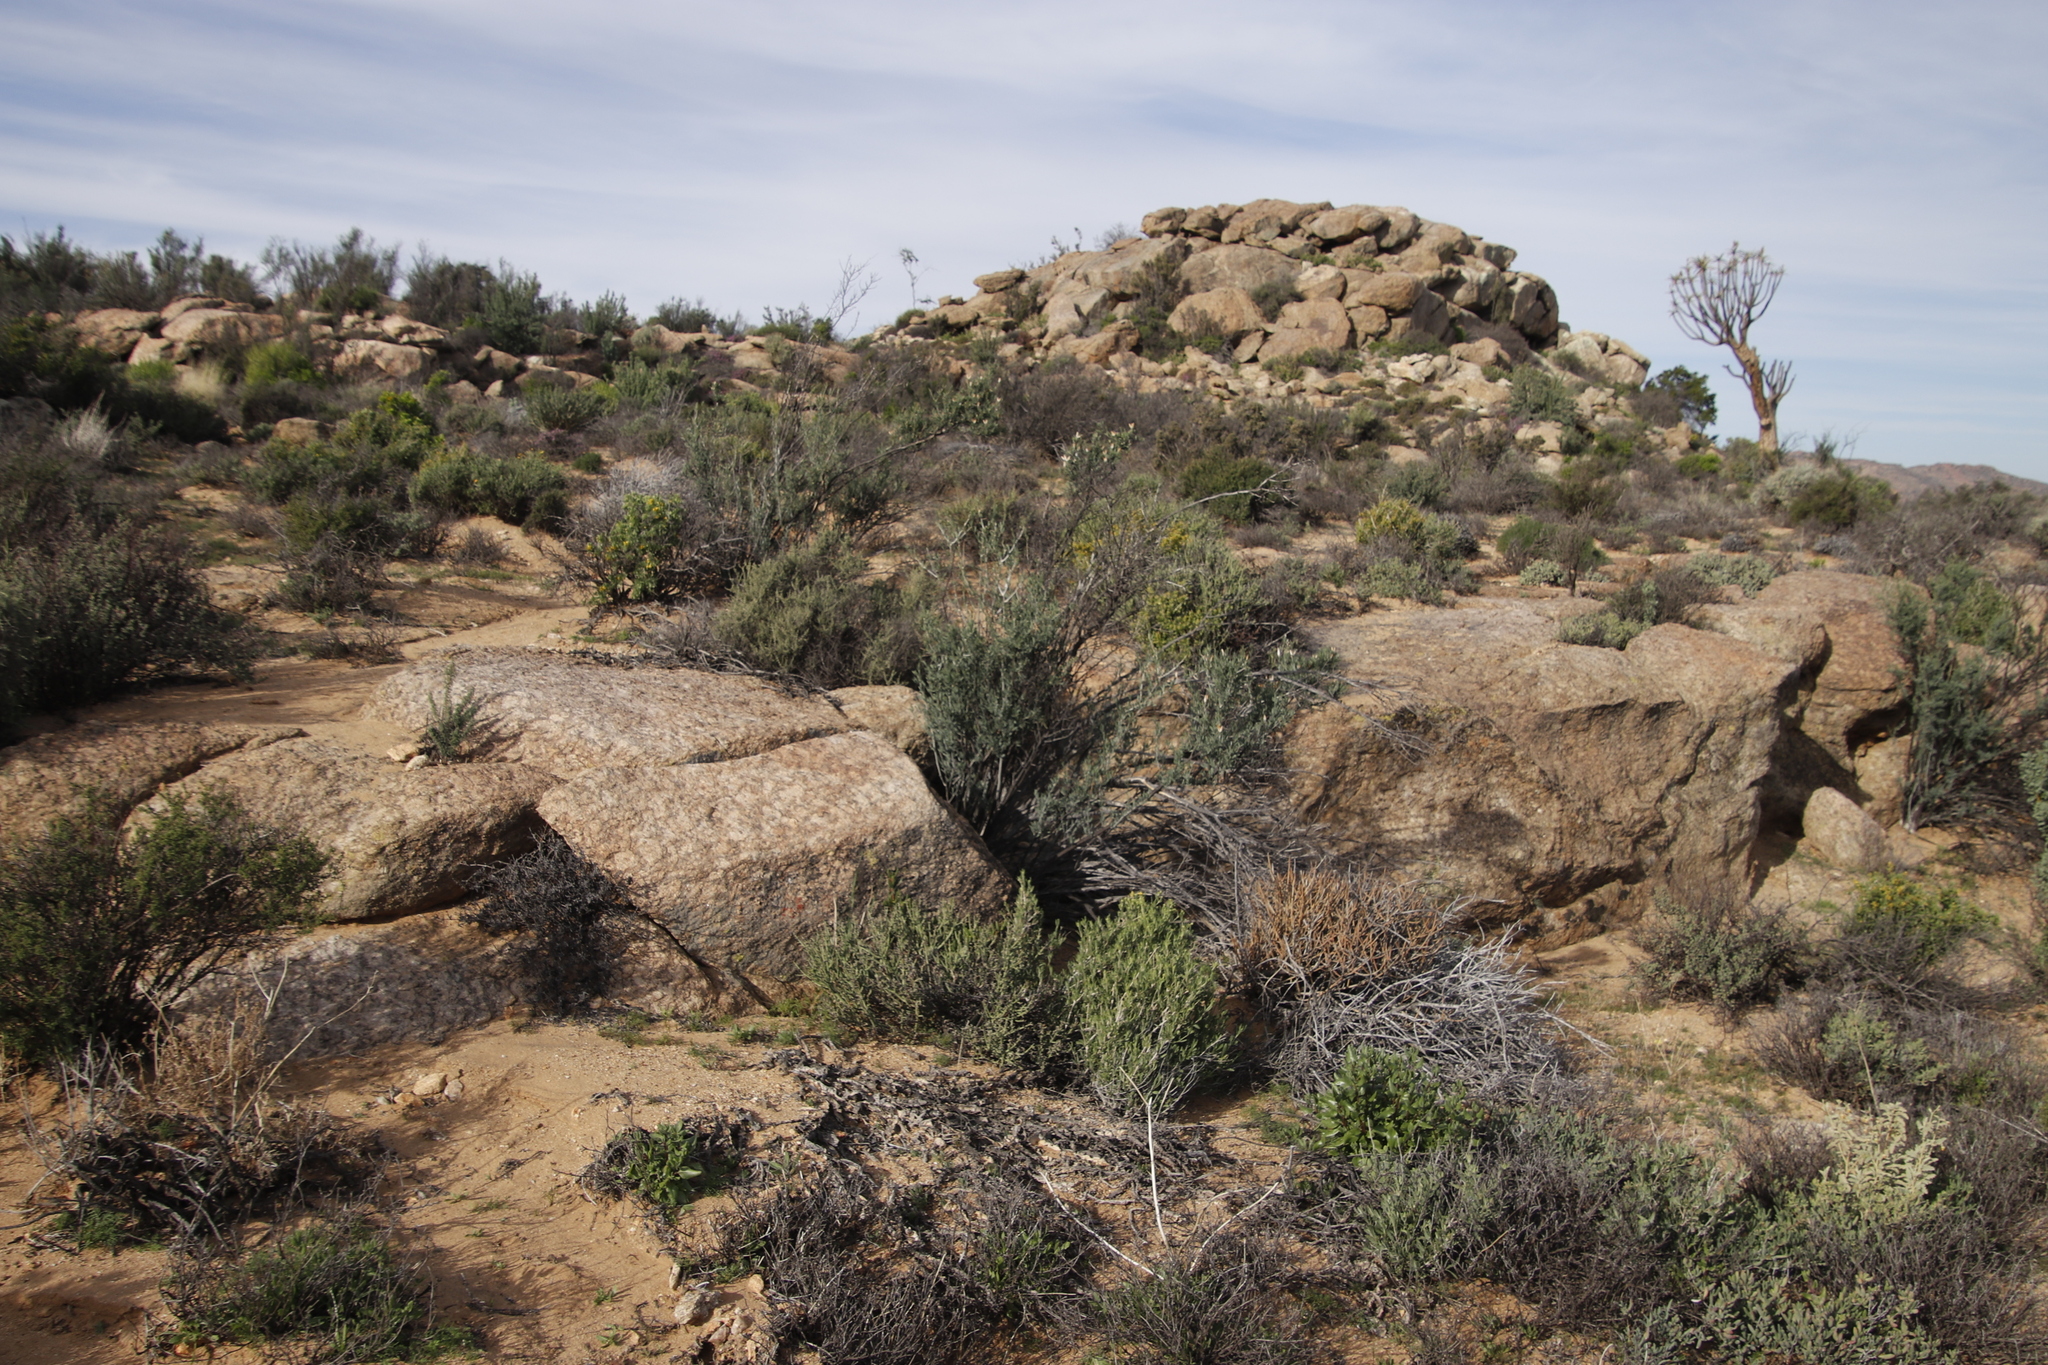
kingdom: Plantae
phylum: Tracheophyta
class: Magnoliopsida
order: Solanales
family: Montiniaceae
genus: Montinia
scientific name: Montinia caryophyllacea
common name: Wild clove-bush
